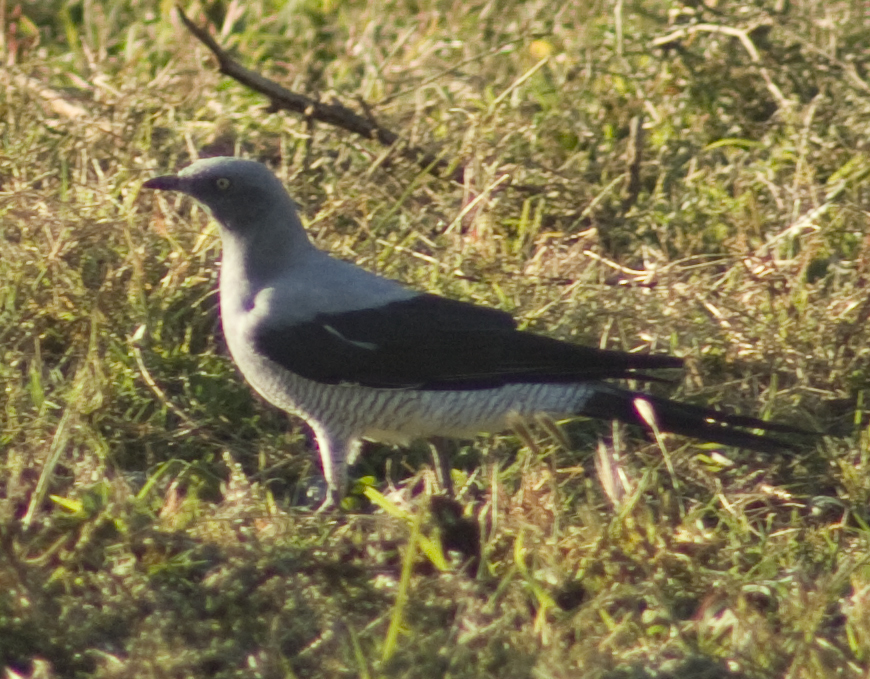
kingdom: Animalia
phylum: Chordata
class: Aves
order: Passeriformes
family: Campephagidae
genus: Coracina
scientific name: Coracina maxima
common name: Ground cuckooshrike
